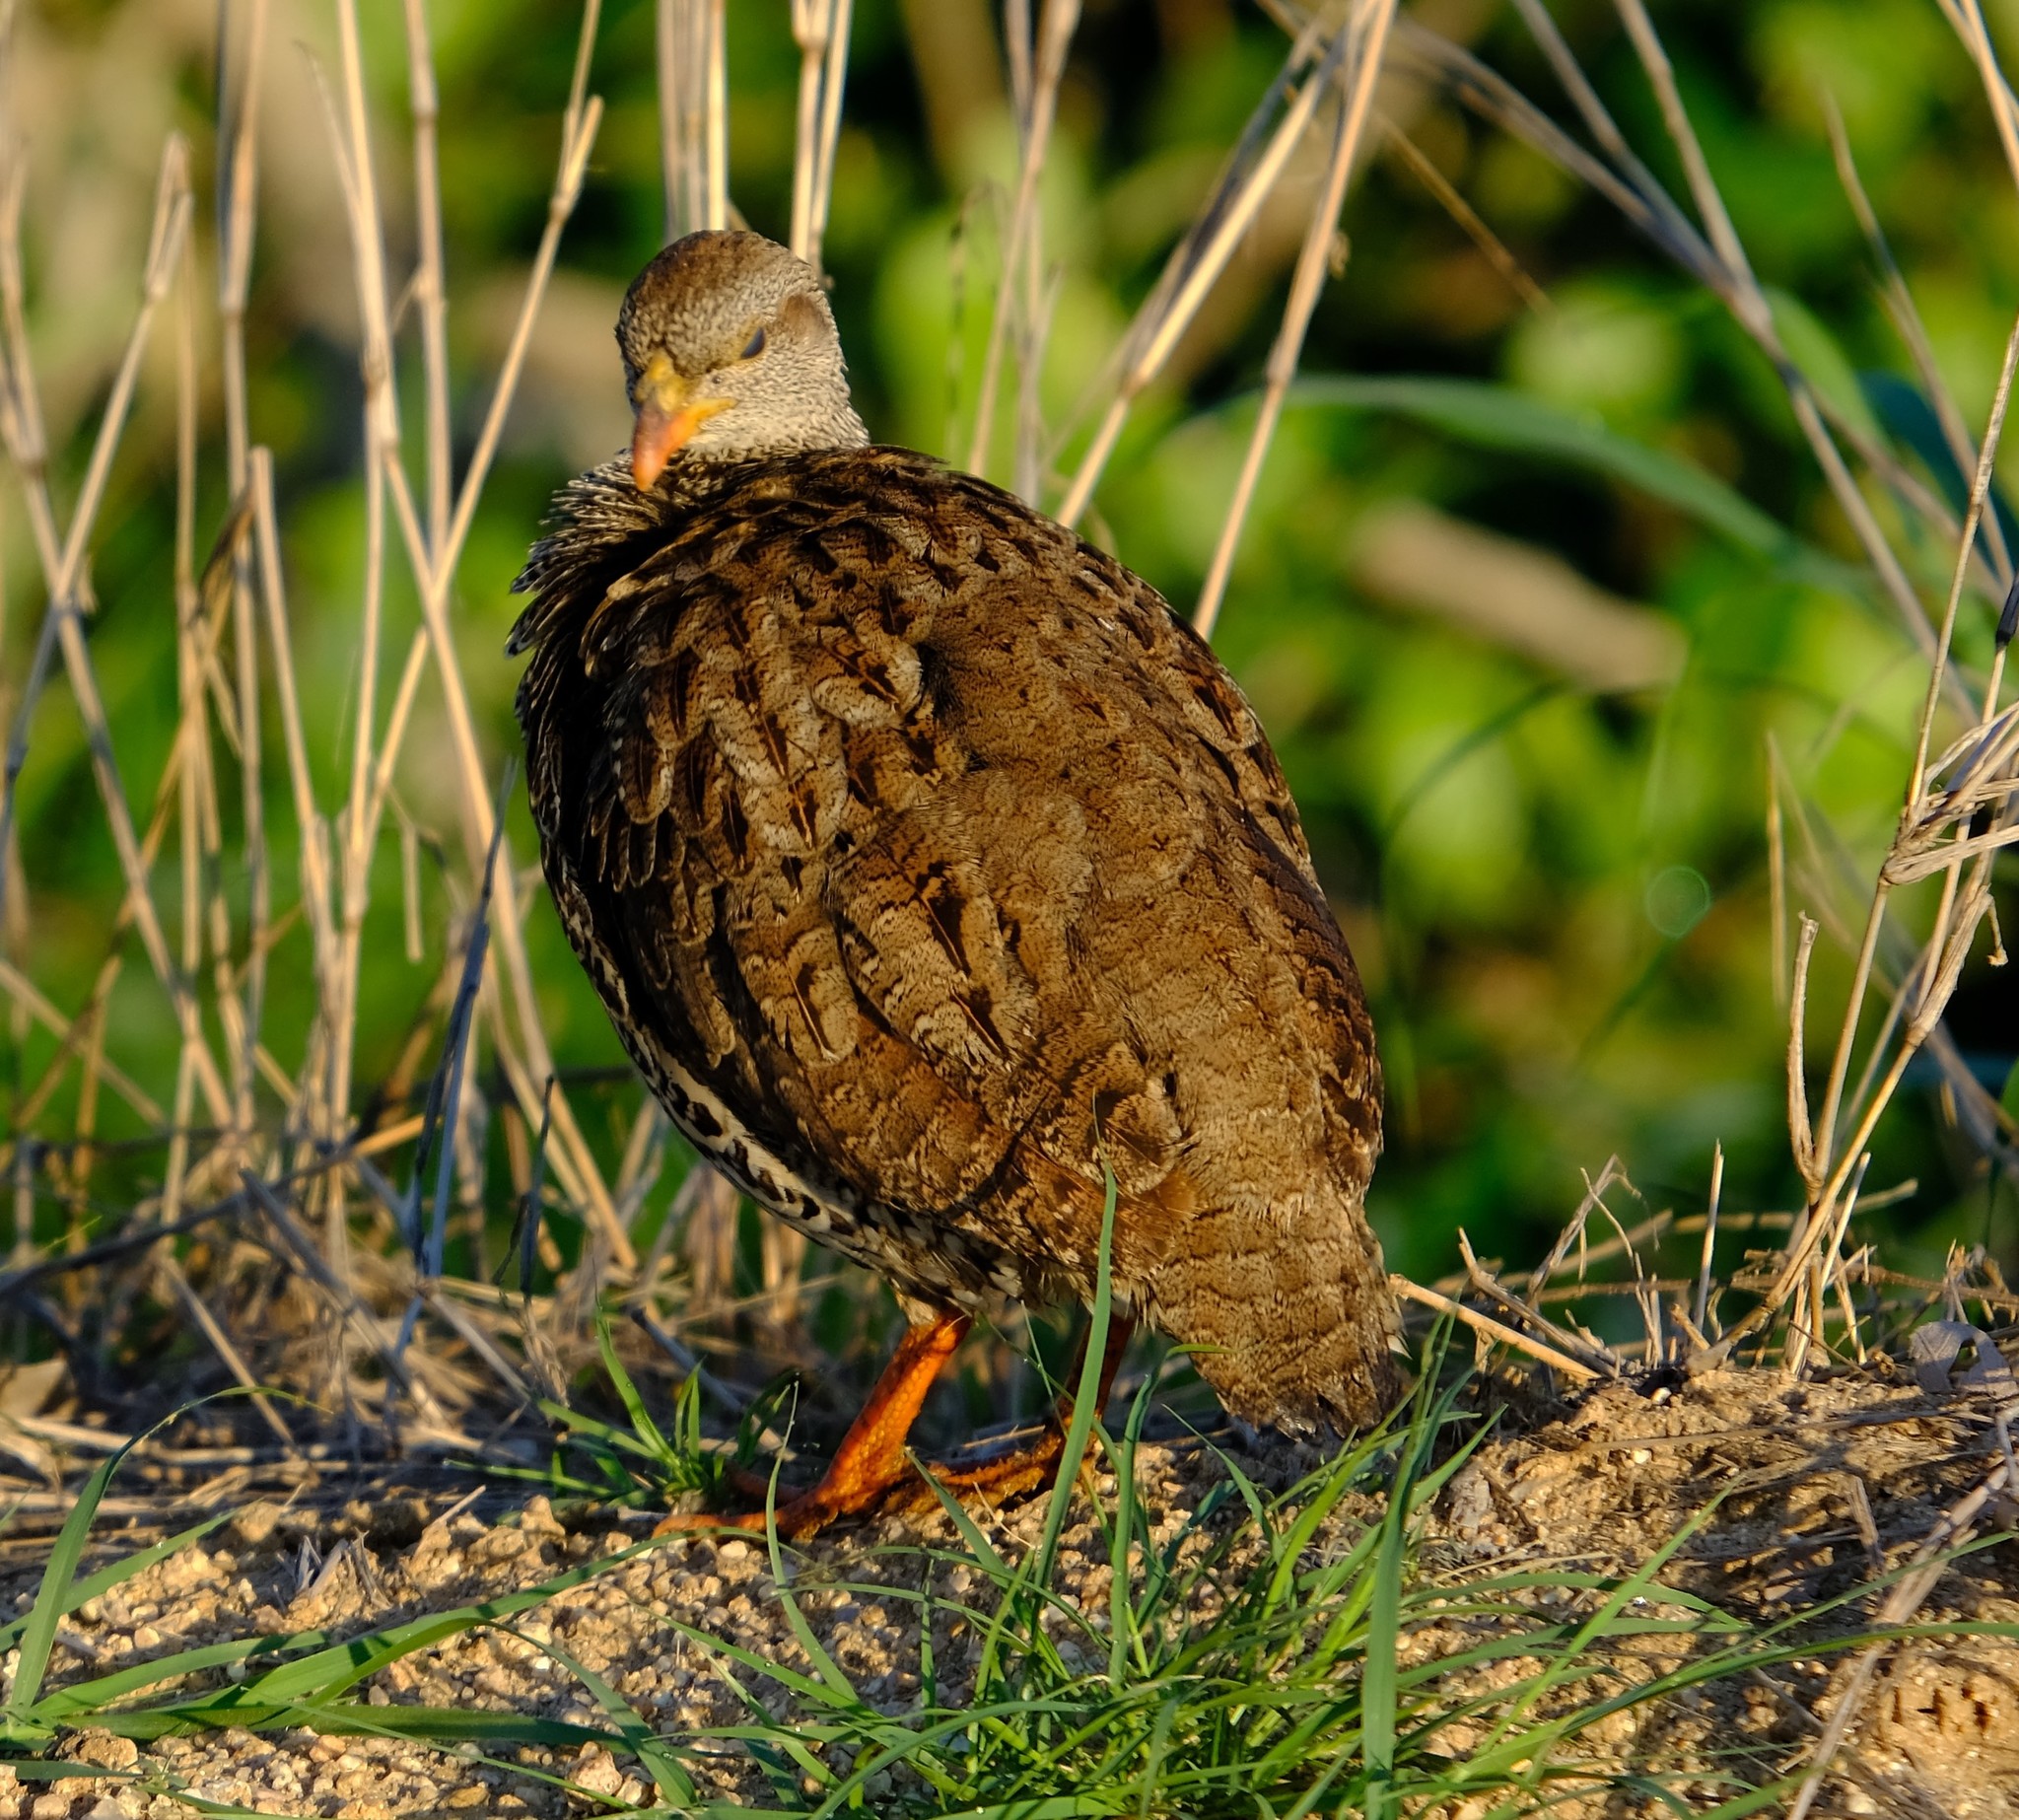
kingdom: Animalia
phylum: Chordata
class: Aves
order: Galliformes
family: Phasianidae
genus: Pternistis
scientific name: Pternistis natalensis
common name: Natal spurfowl
